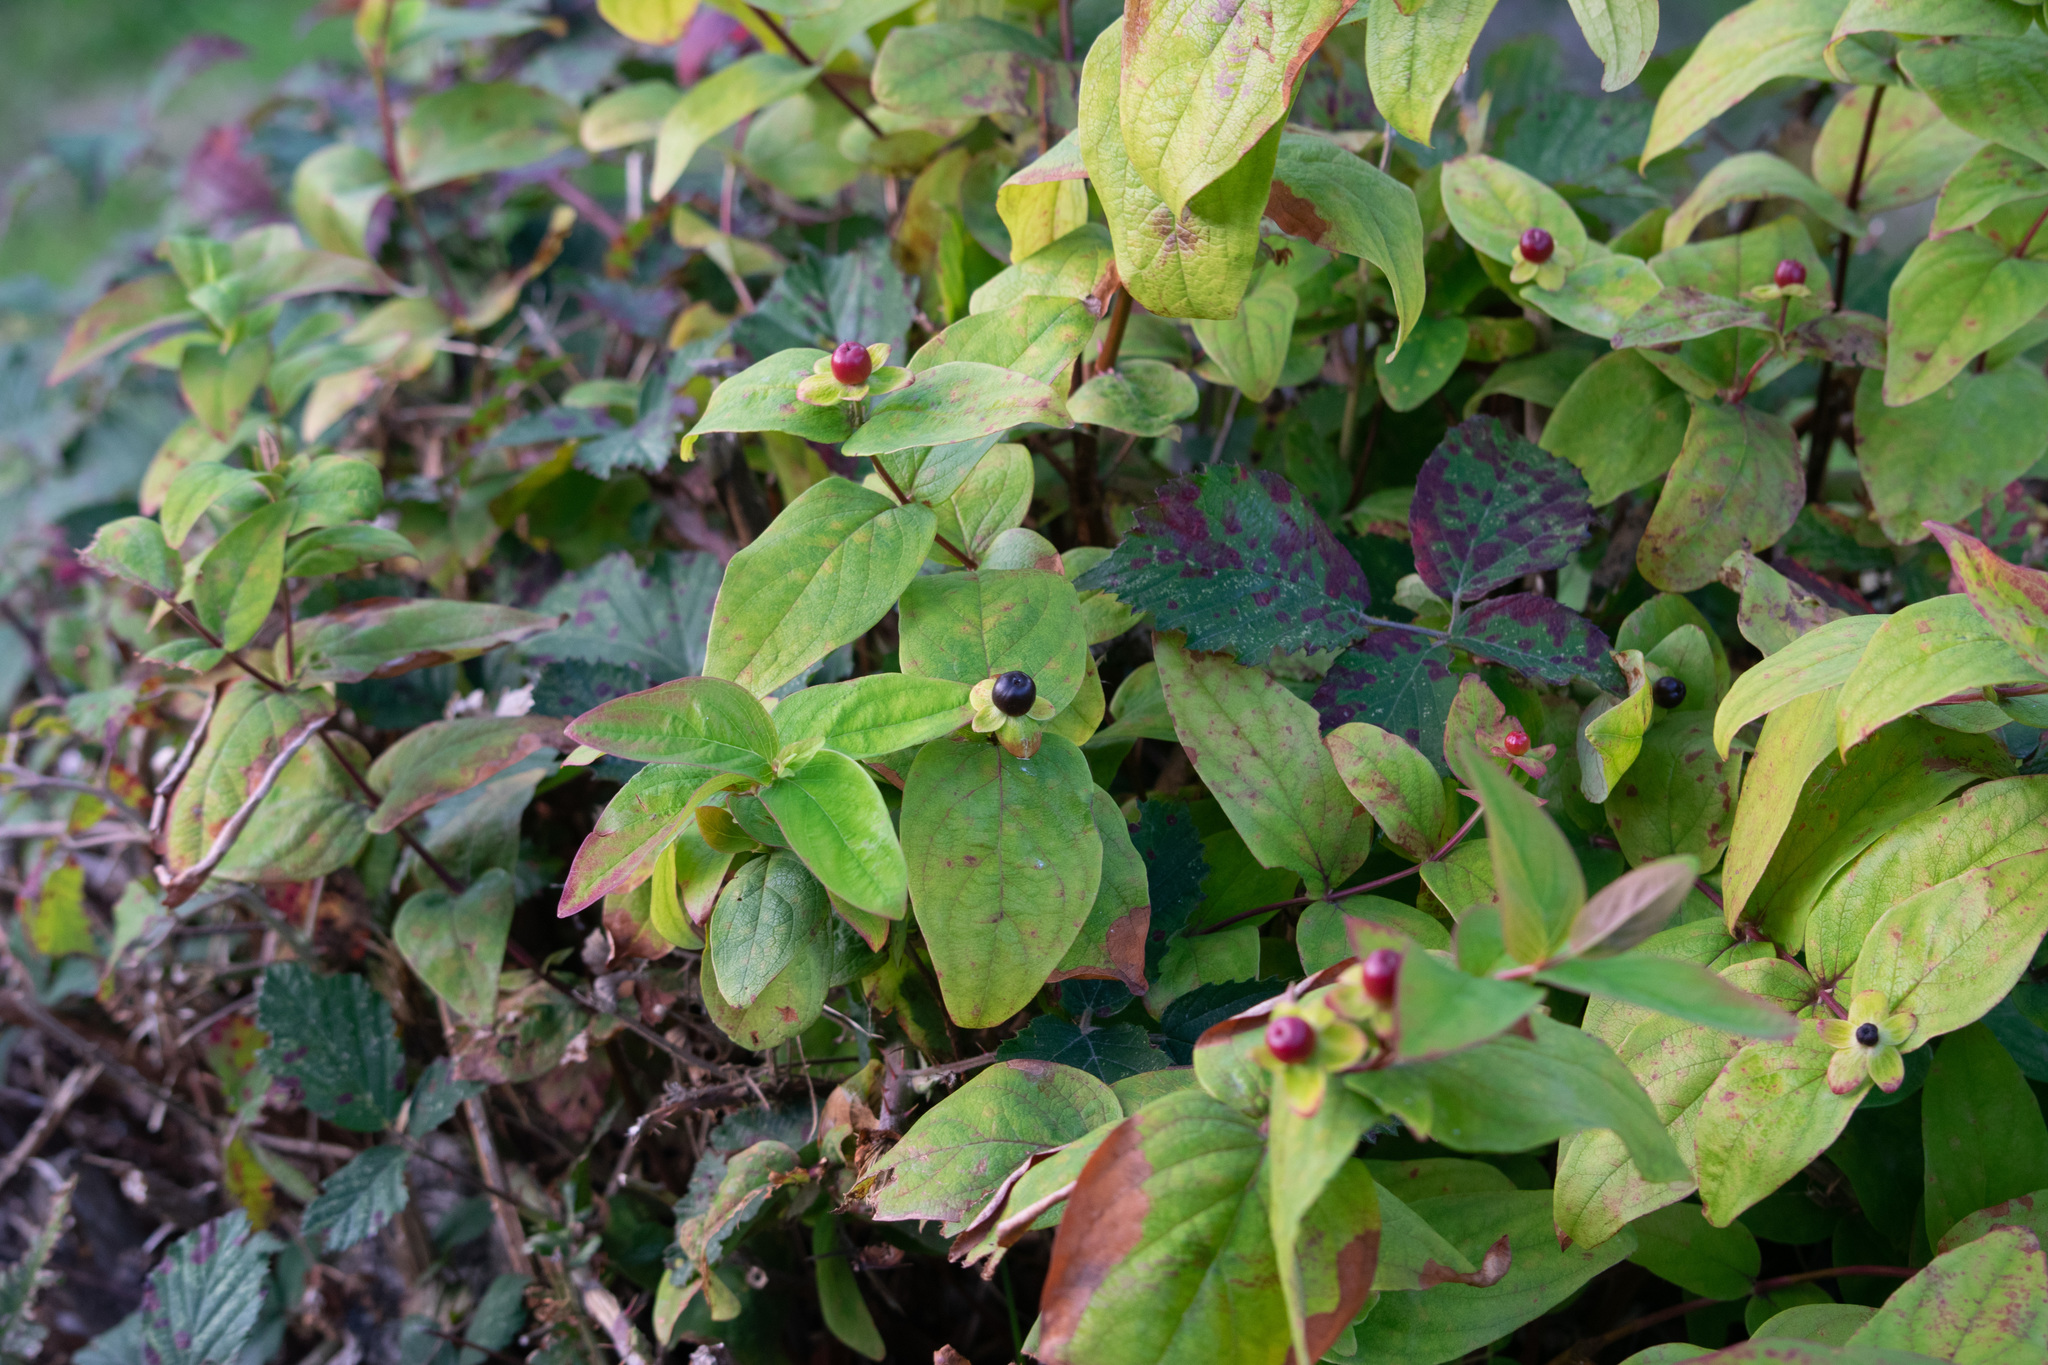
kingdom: Plantae
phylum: Tracheophyta
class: Magnoliopsida
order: Malpighiales
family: Hypericaceae
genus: Hypericum
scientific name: Hypericum androsaemum
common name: Sweet-amber
